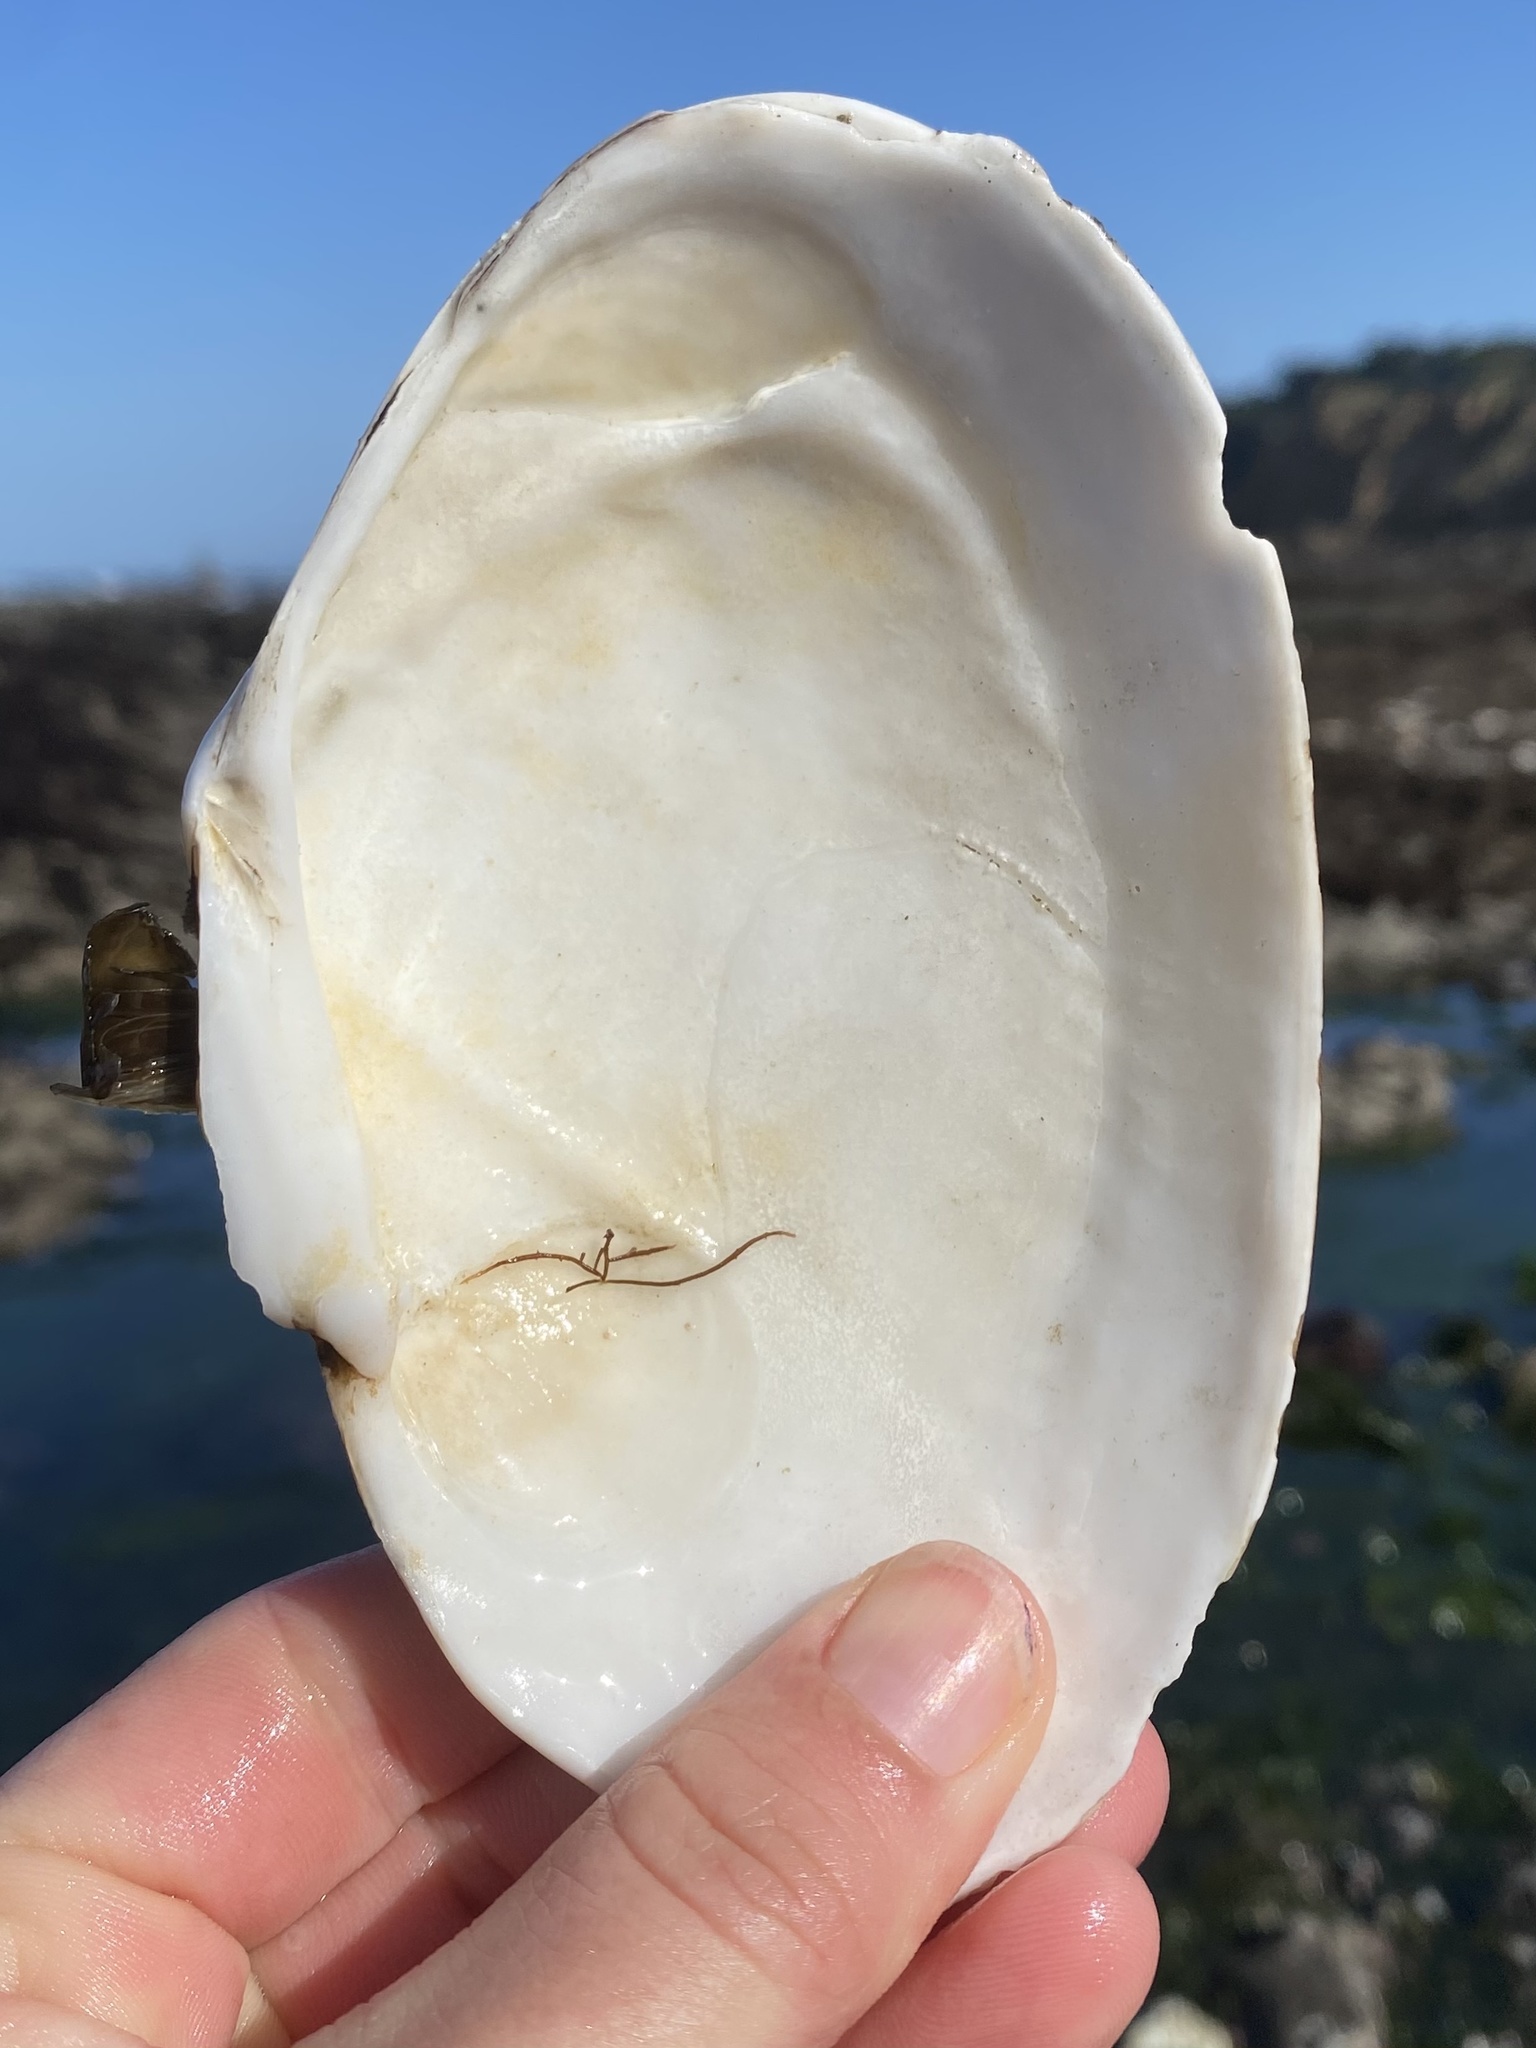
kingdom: Animalia
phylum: Mollusca
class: Bivalvia
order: Cardiida
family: Psammobiidae
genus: Gari
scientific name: Gari californica
